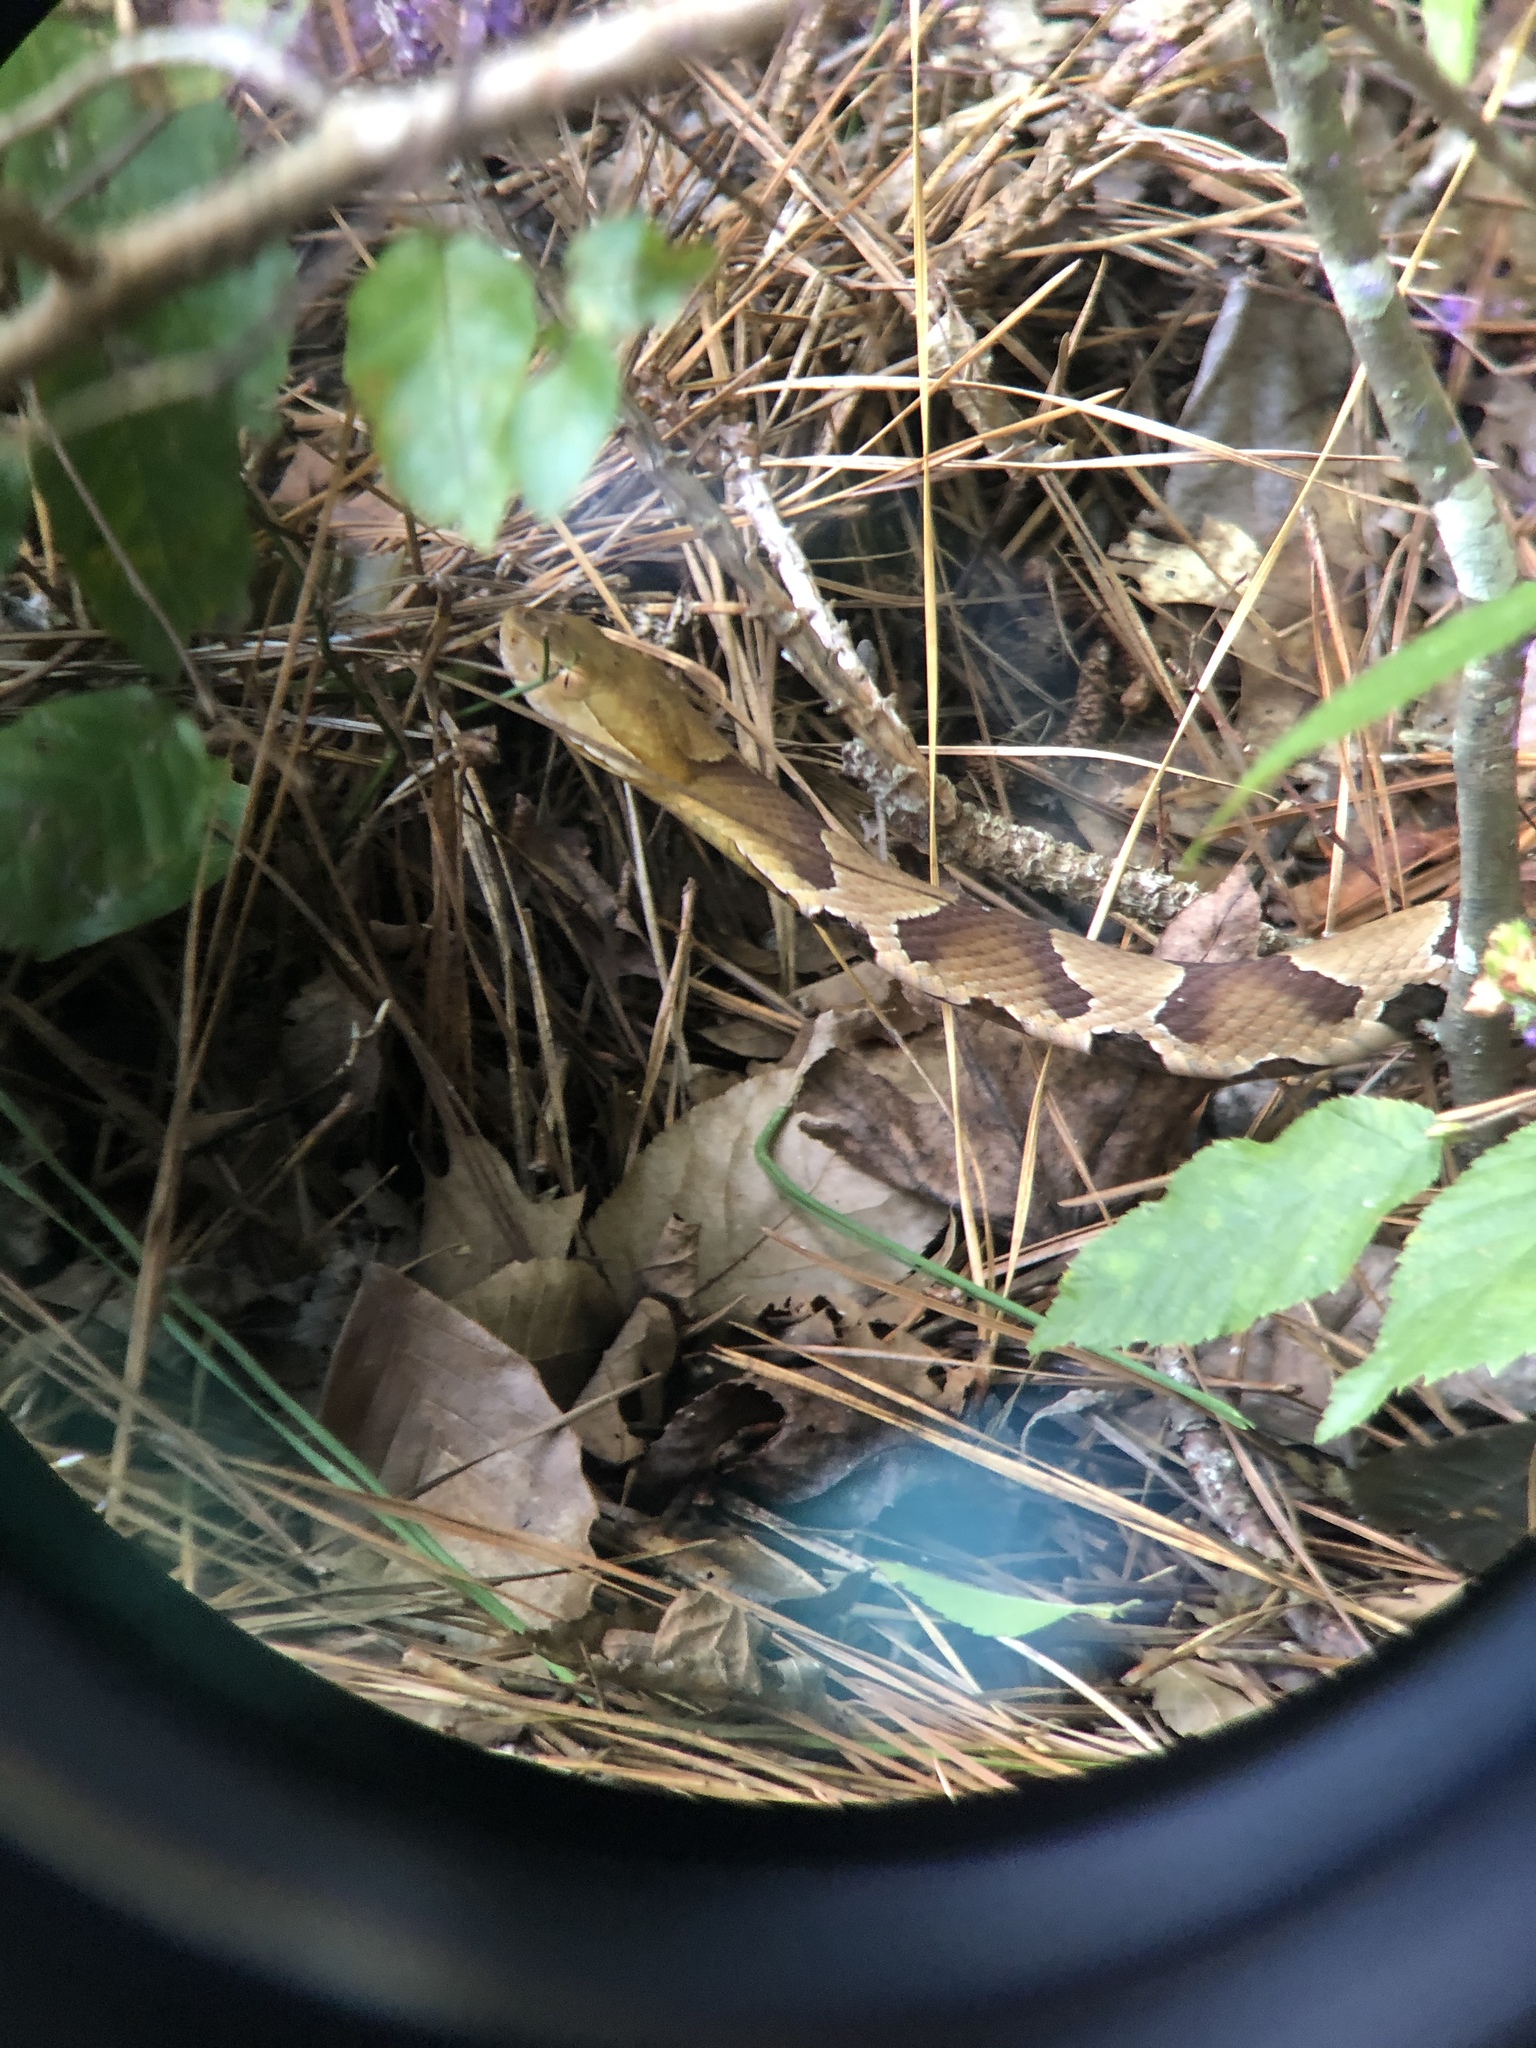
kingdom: Animalia
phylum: Chordata
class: Squamata
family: Viperidae
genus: Agkistrodon
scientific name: Agkistrodon contortrix
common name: Northern copperhead
